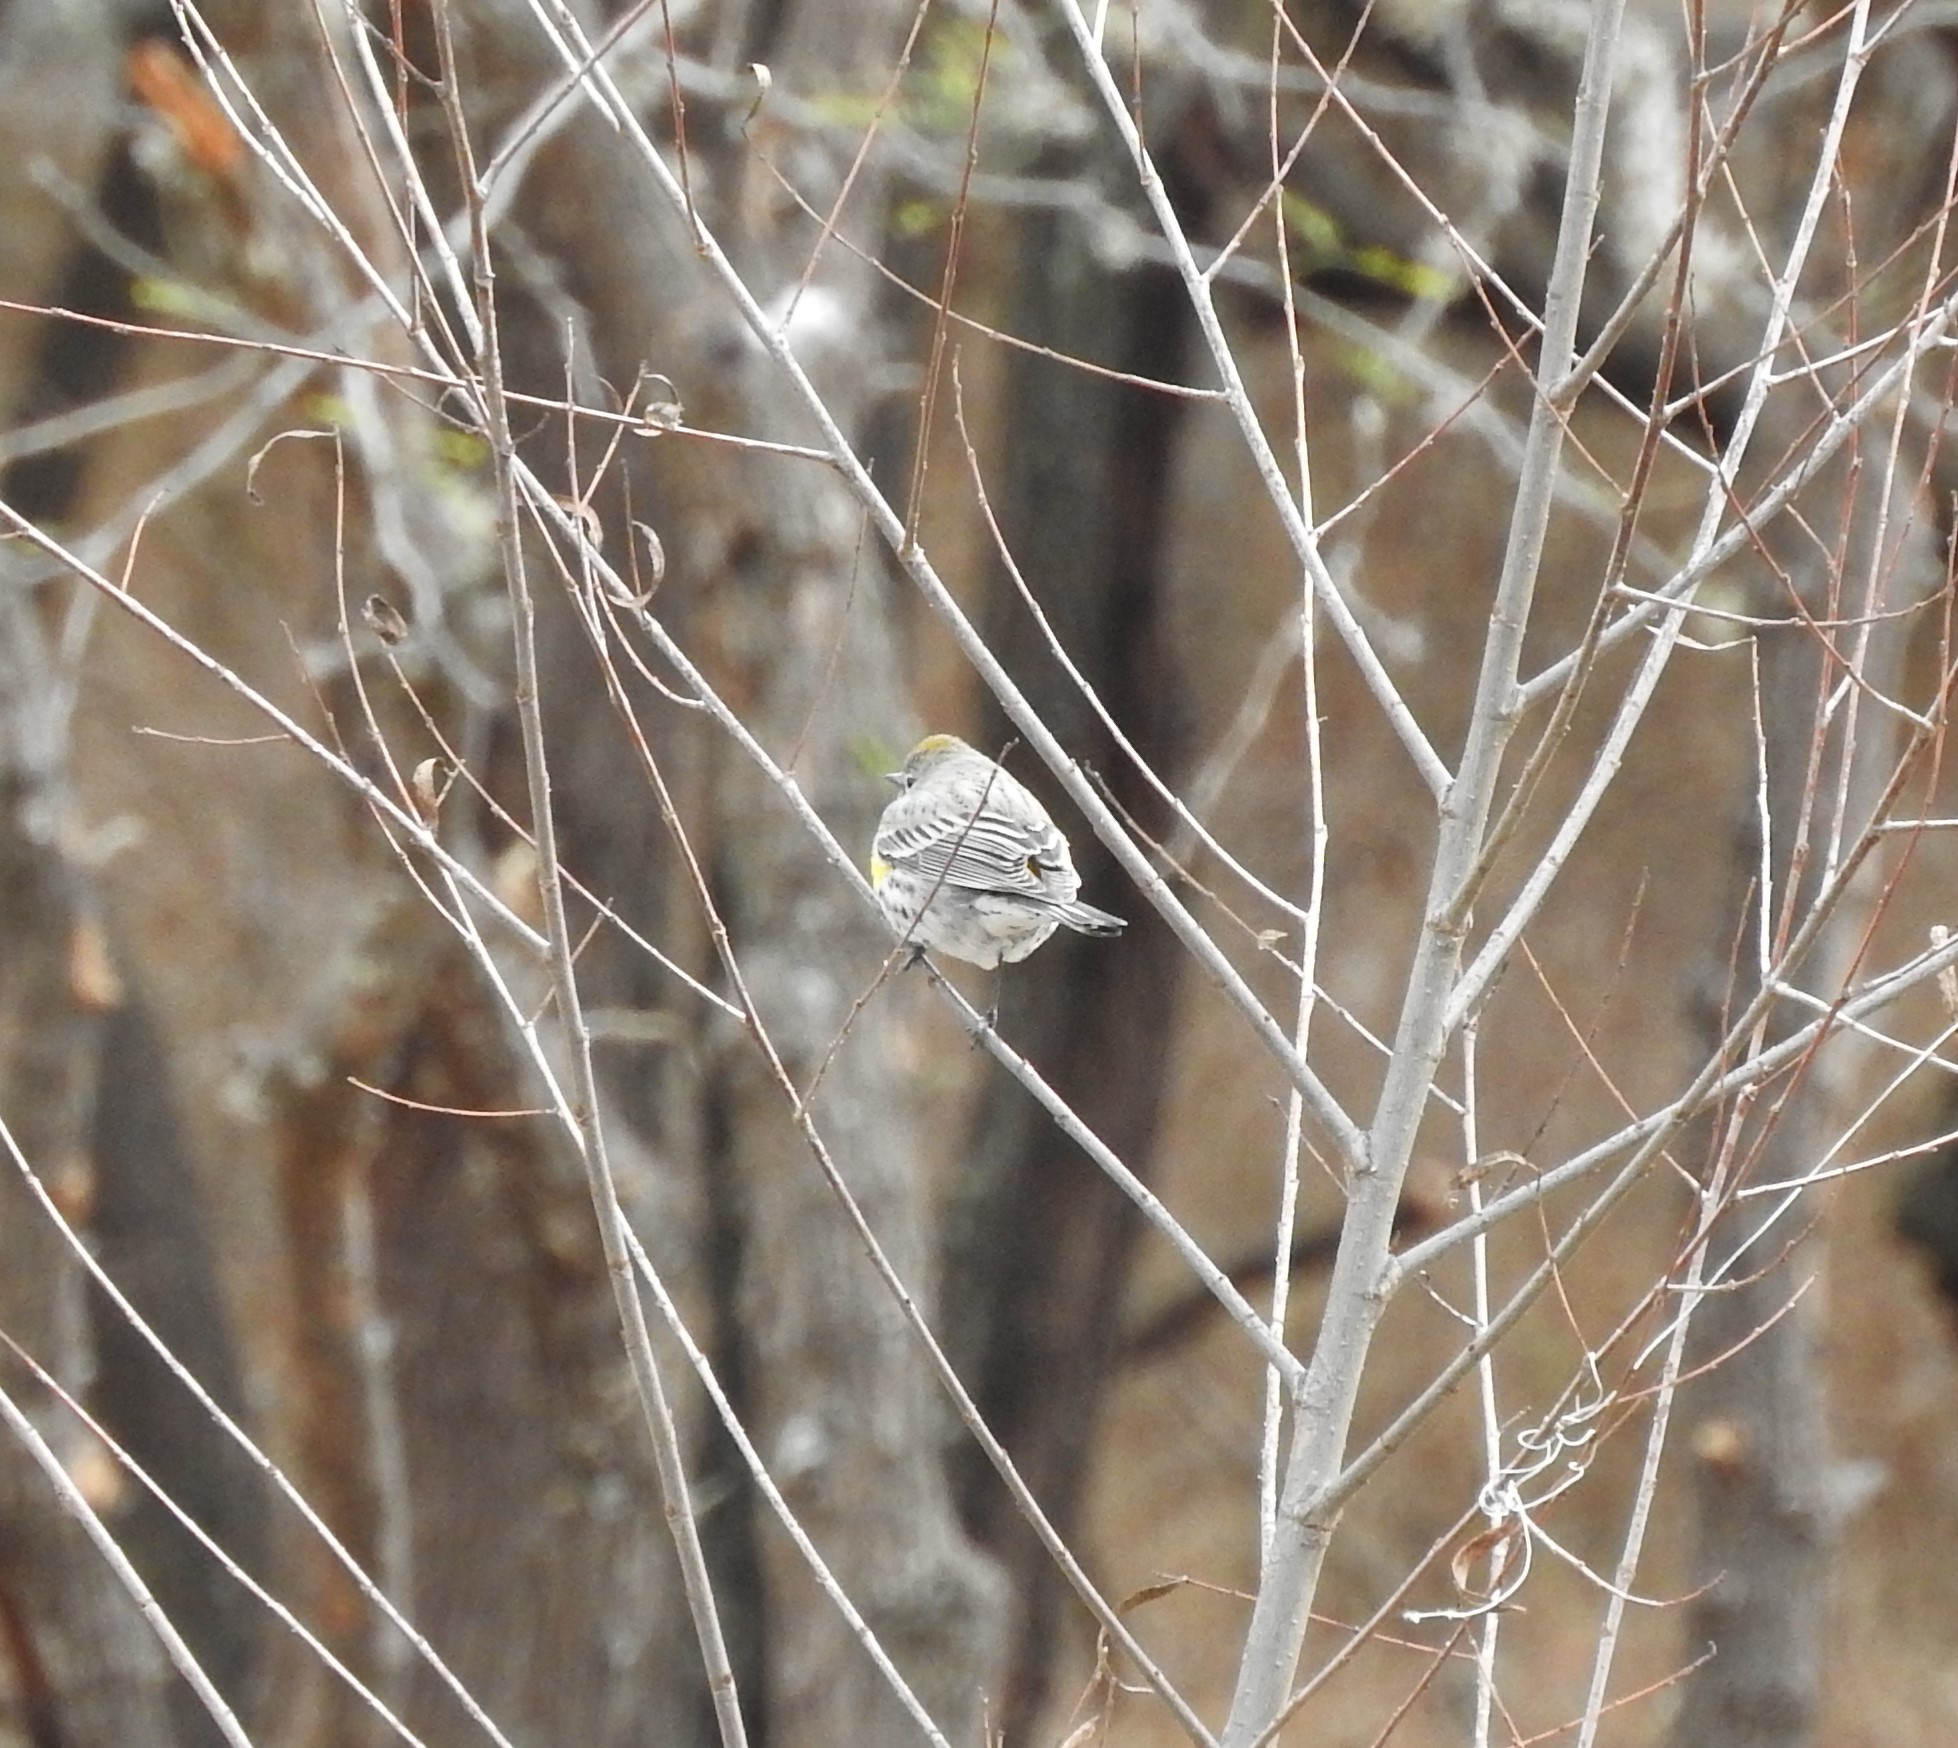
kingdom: Animalia
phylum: Chordata
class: Aves
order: Passeriformes
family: Parulidae
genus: Setophaga
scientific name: Setophaga coronata
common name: Myrtle warbler
